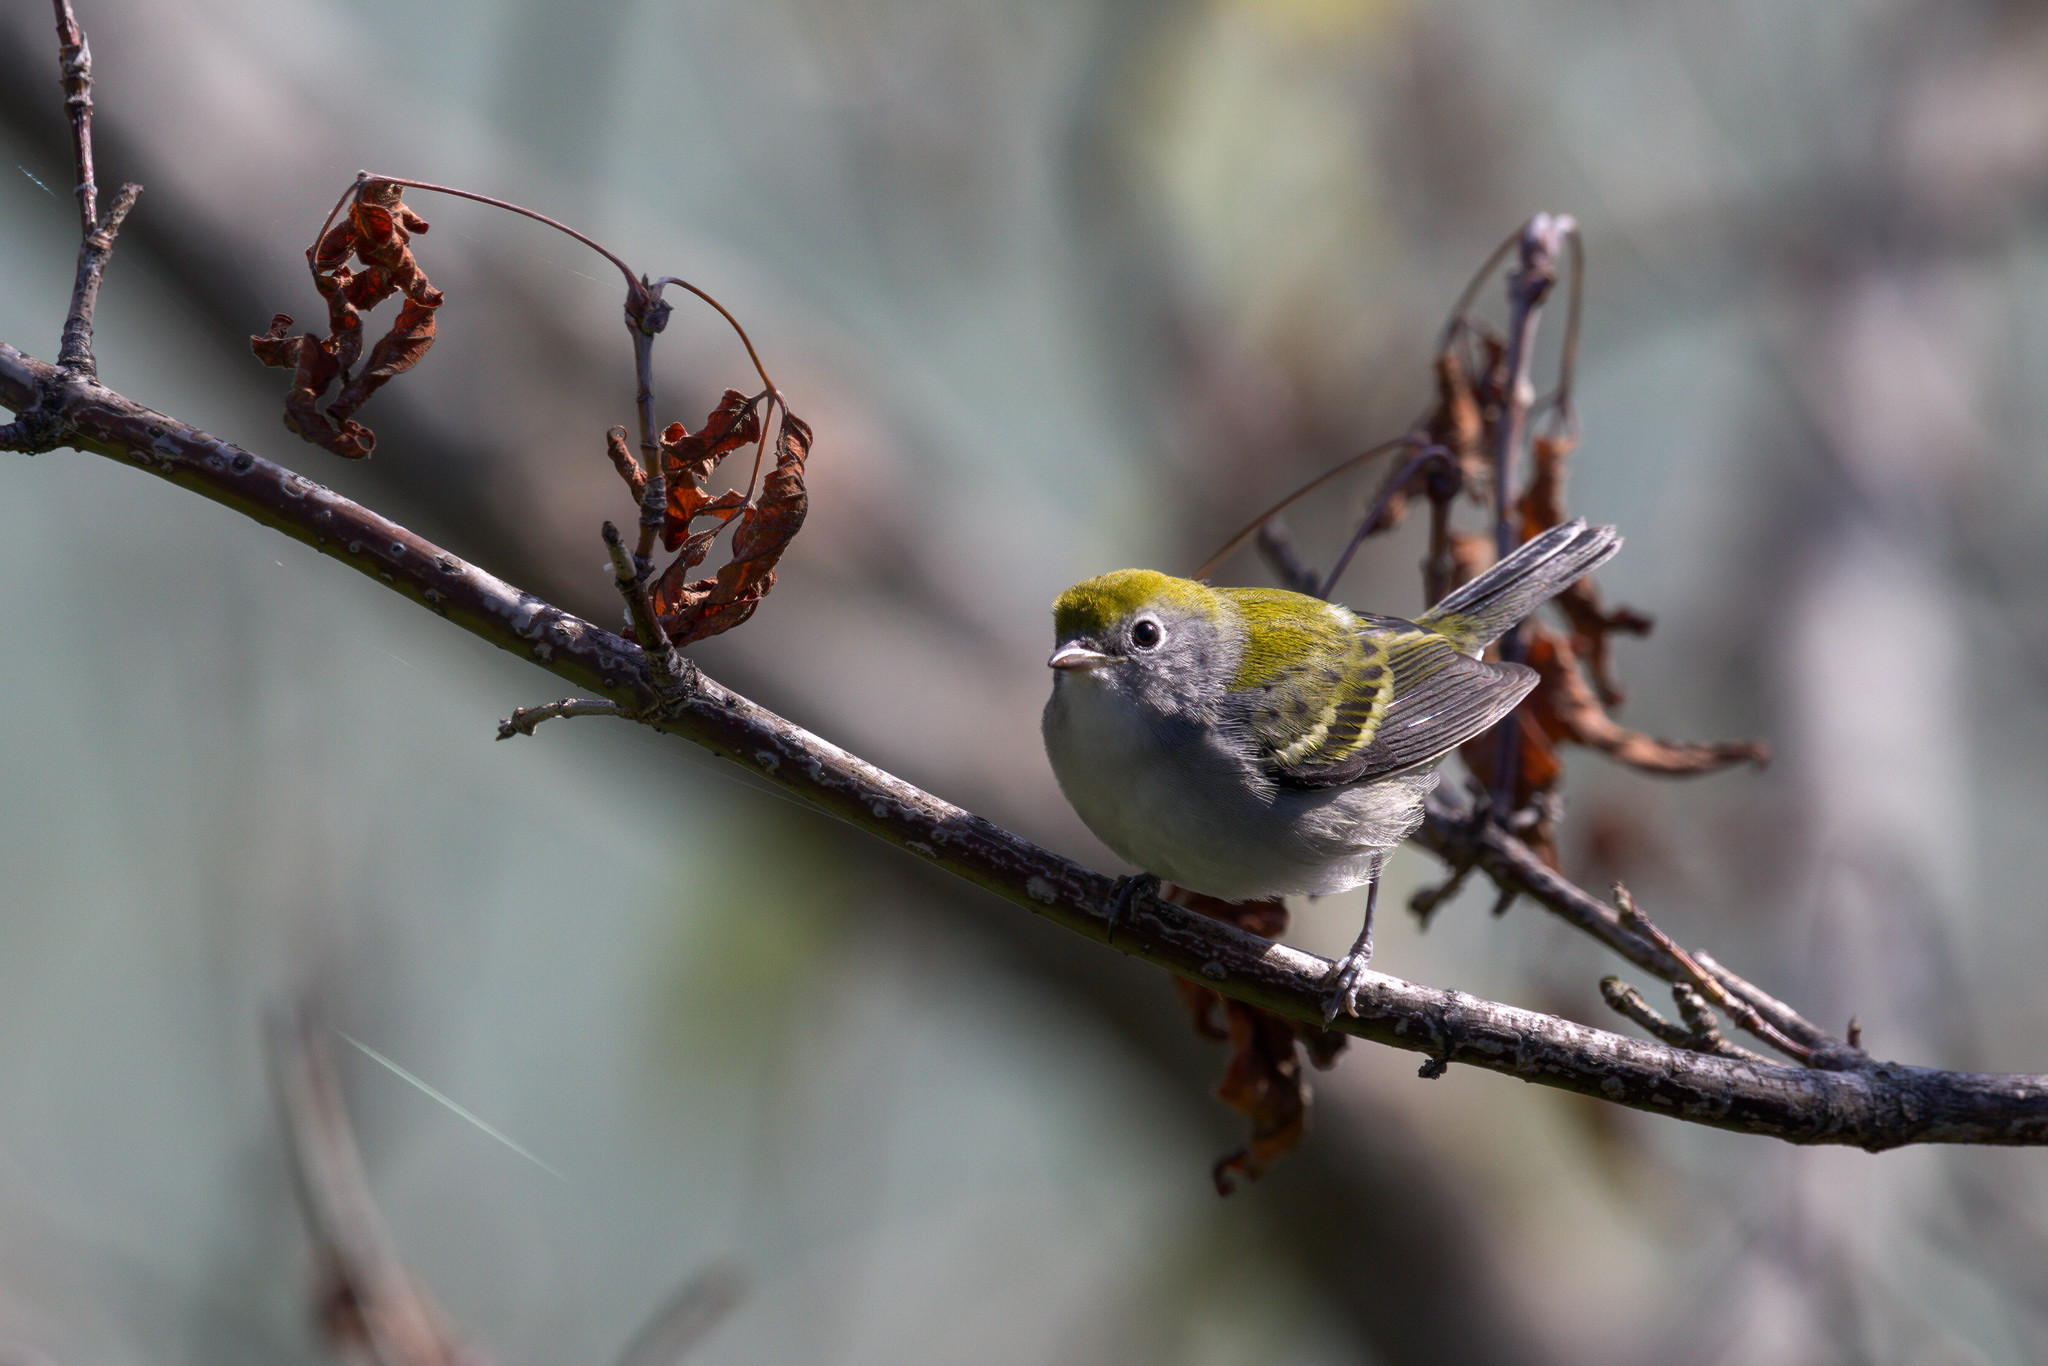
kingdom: Animalia
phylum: Chordata
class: Aves
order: Passeriformes
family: Parulidae
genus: Setophaga
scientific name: Setophaga pensylvanica
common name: Chestnut-sided warbler
